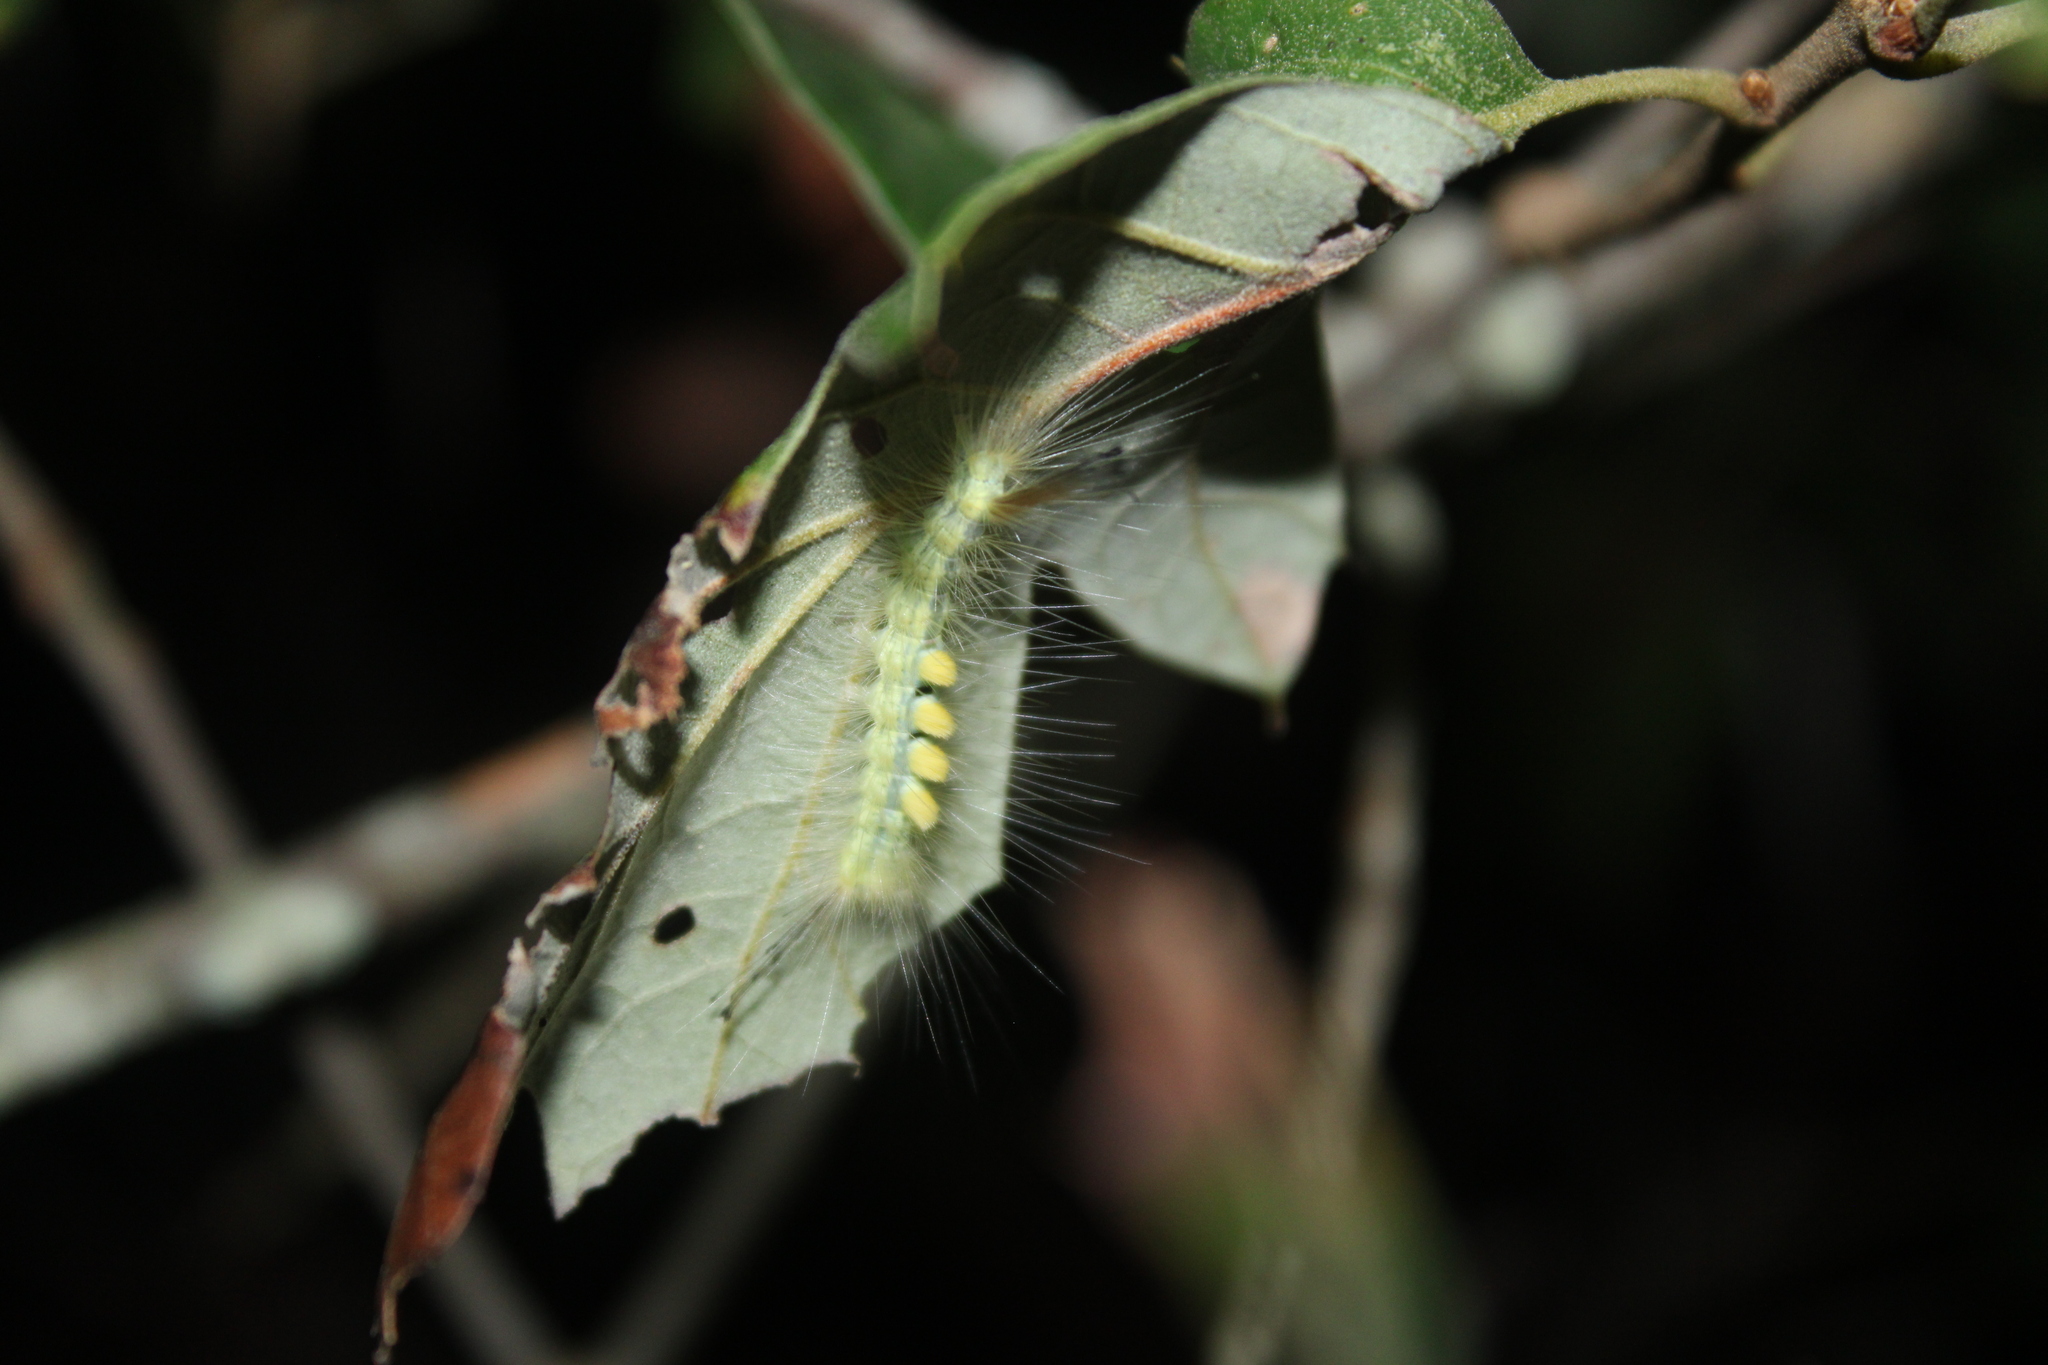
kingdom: Animalia
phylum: Arthropoda
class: Insecta
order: Lepidoptera
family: Erebidae
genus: Orgyia
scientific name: Orgyia definita
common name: Definite tussock moth
